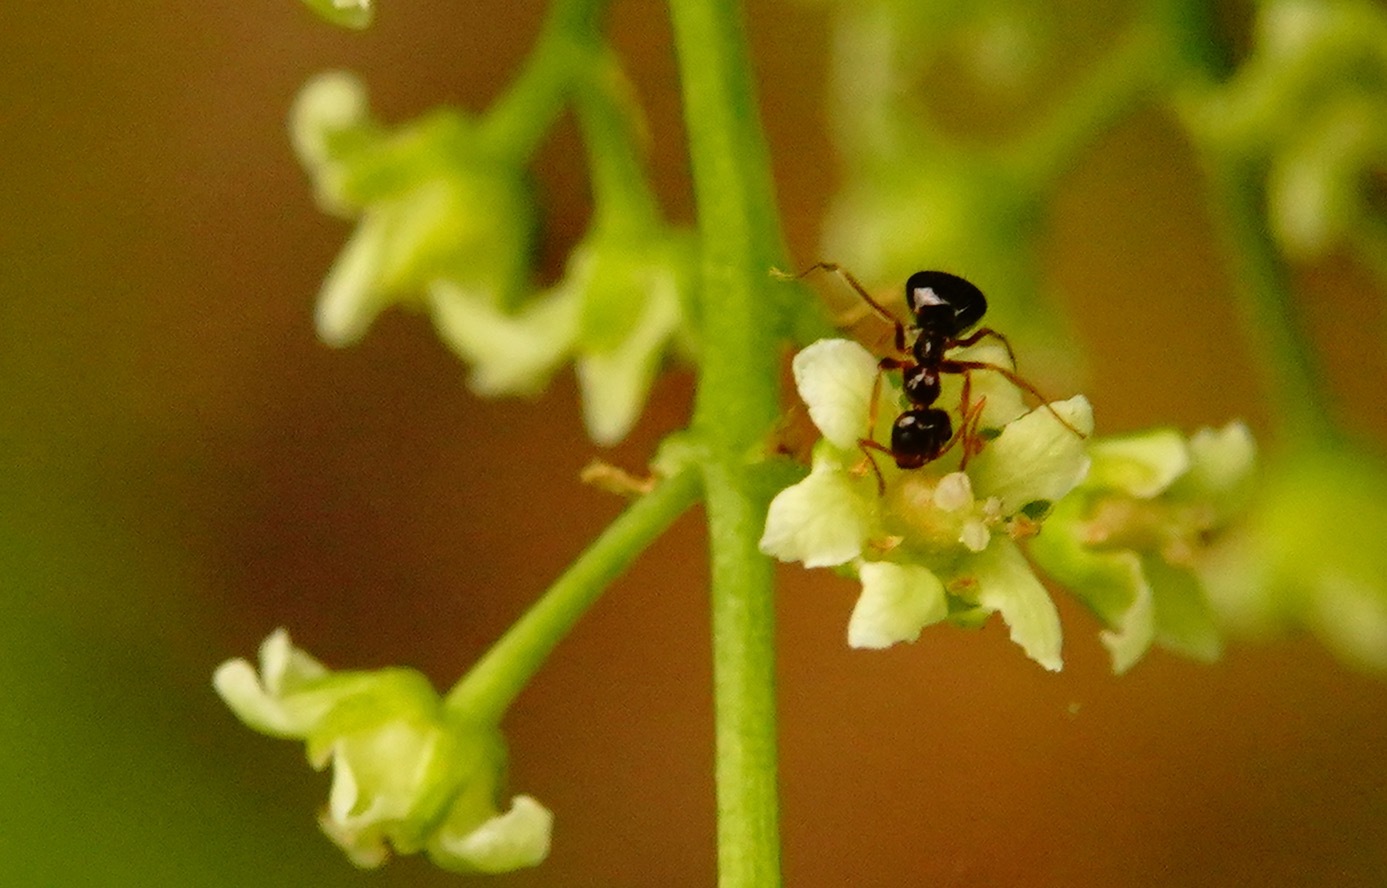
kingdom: Animalia
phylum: Arthropoda
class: Insecta
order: Hymenoptera
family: Formicidae
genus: Prenolepis
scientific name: Prenolepis imparis
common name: Small honey ant
